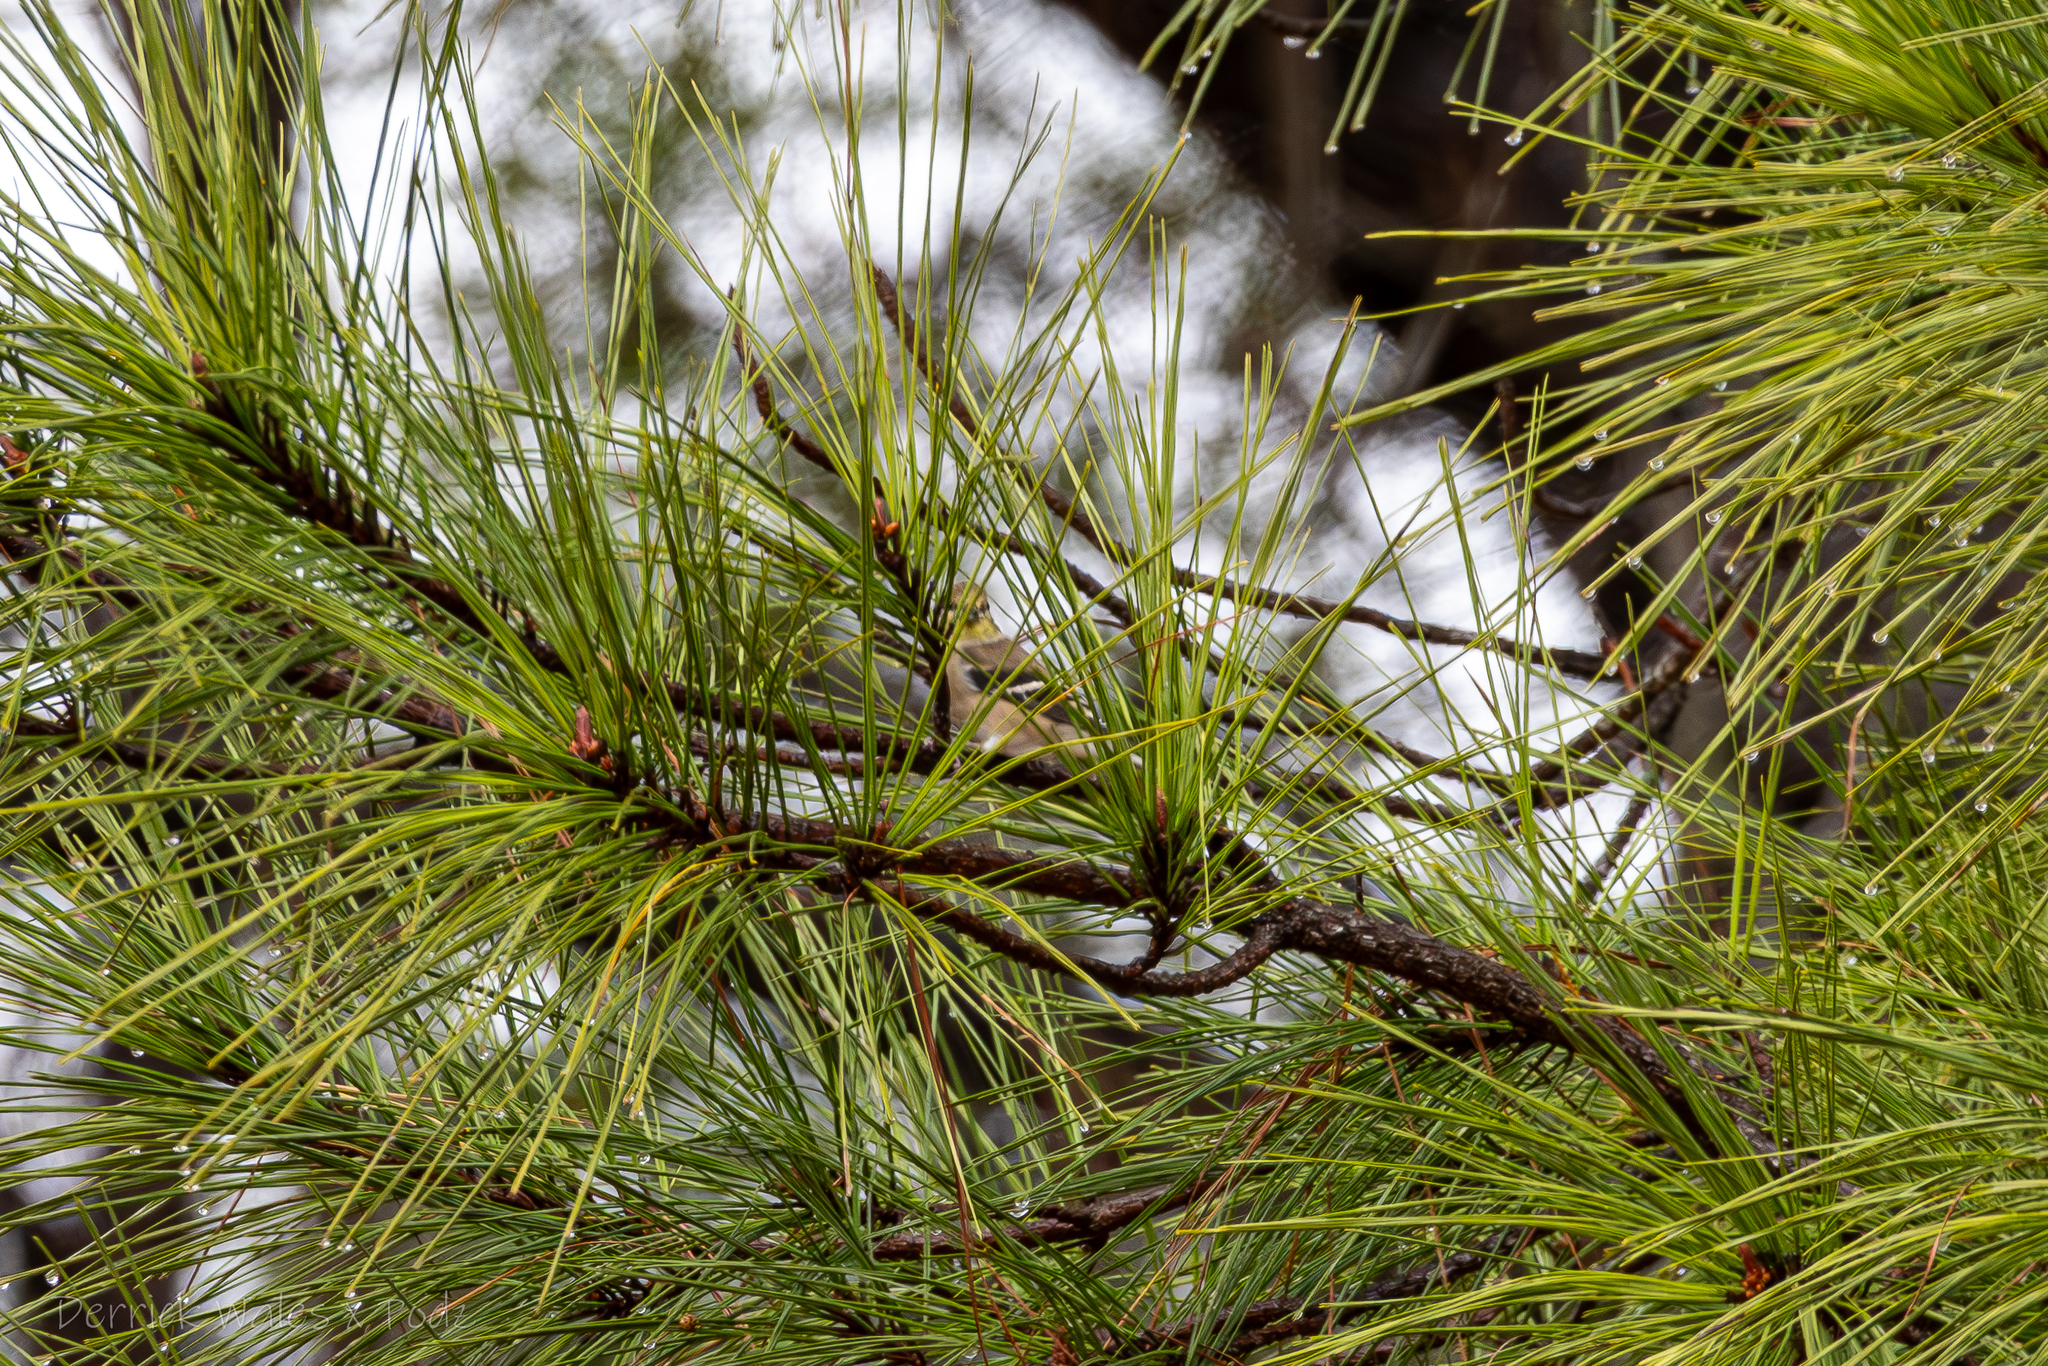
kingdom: Animalia
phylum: Chordata
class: Aves
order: Passeriformes
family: Fringillidae
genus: Spinus
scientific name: Spinus tristis
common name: American goldfinch
